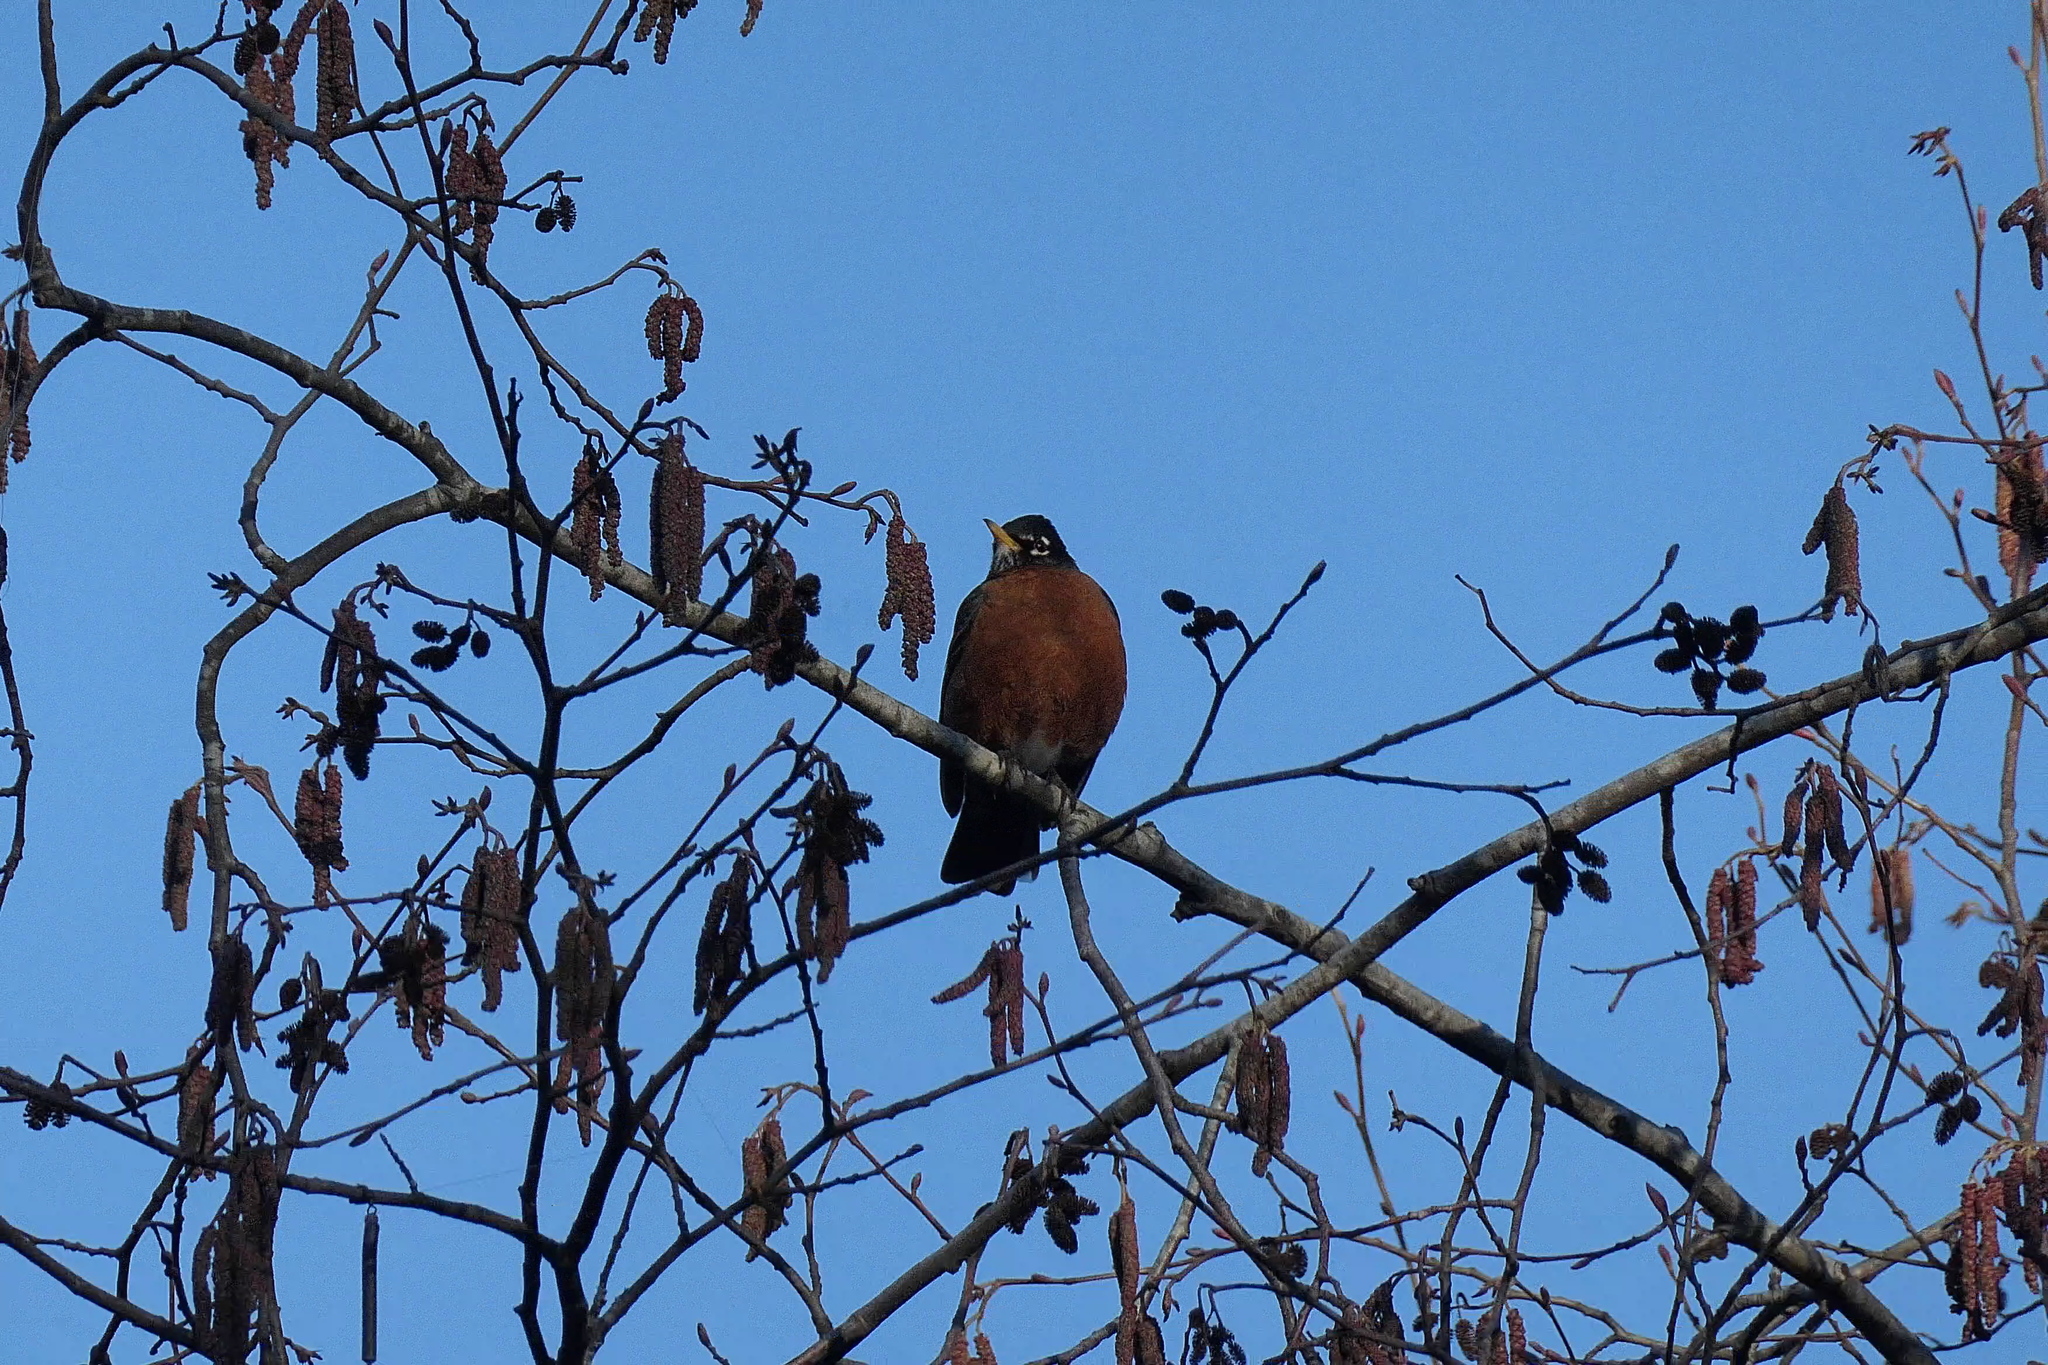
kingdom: Animalia
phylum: Chordata
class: Aves
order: Passeriformes
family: Turdidae
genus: Turdus
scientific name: Turdus migratorius
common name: American robin
